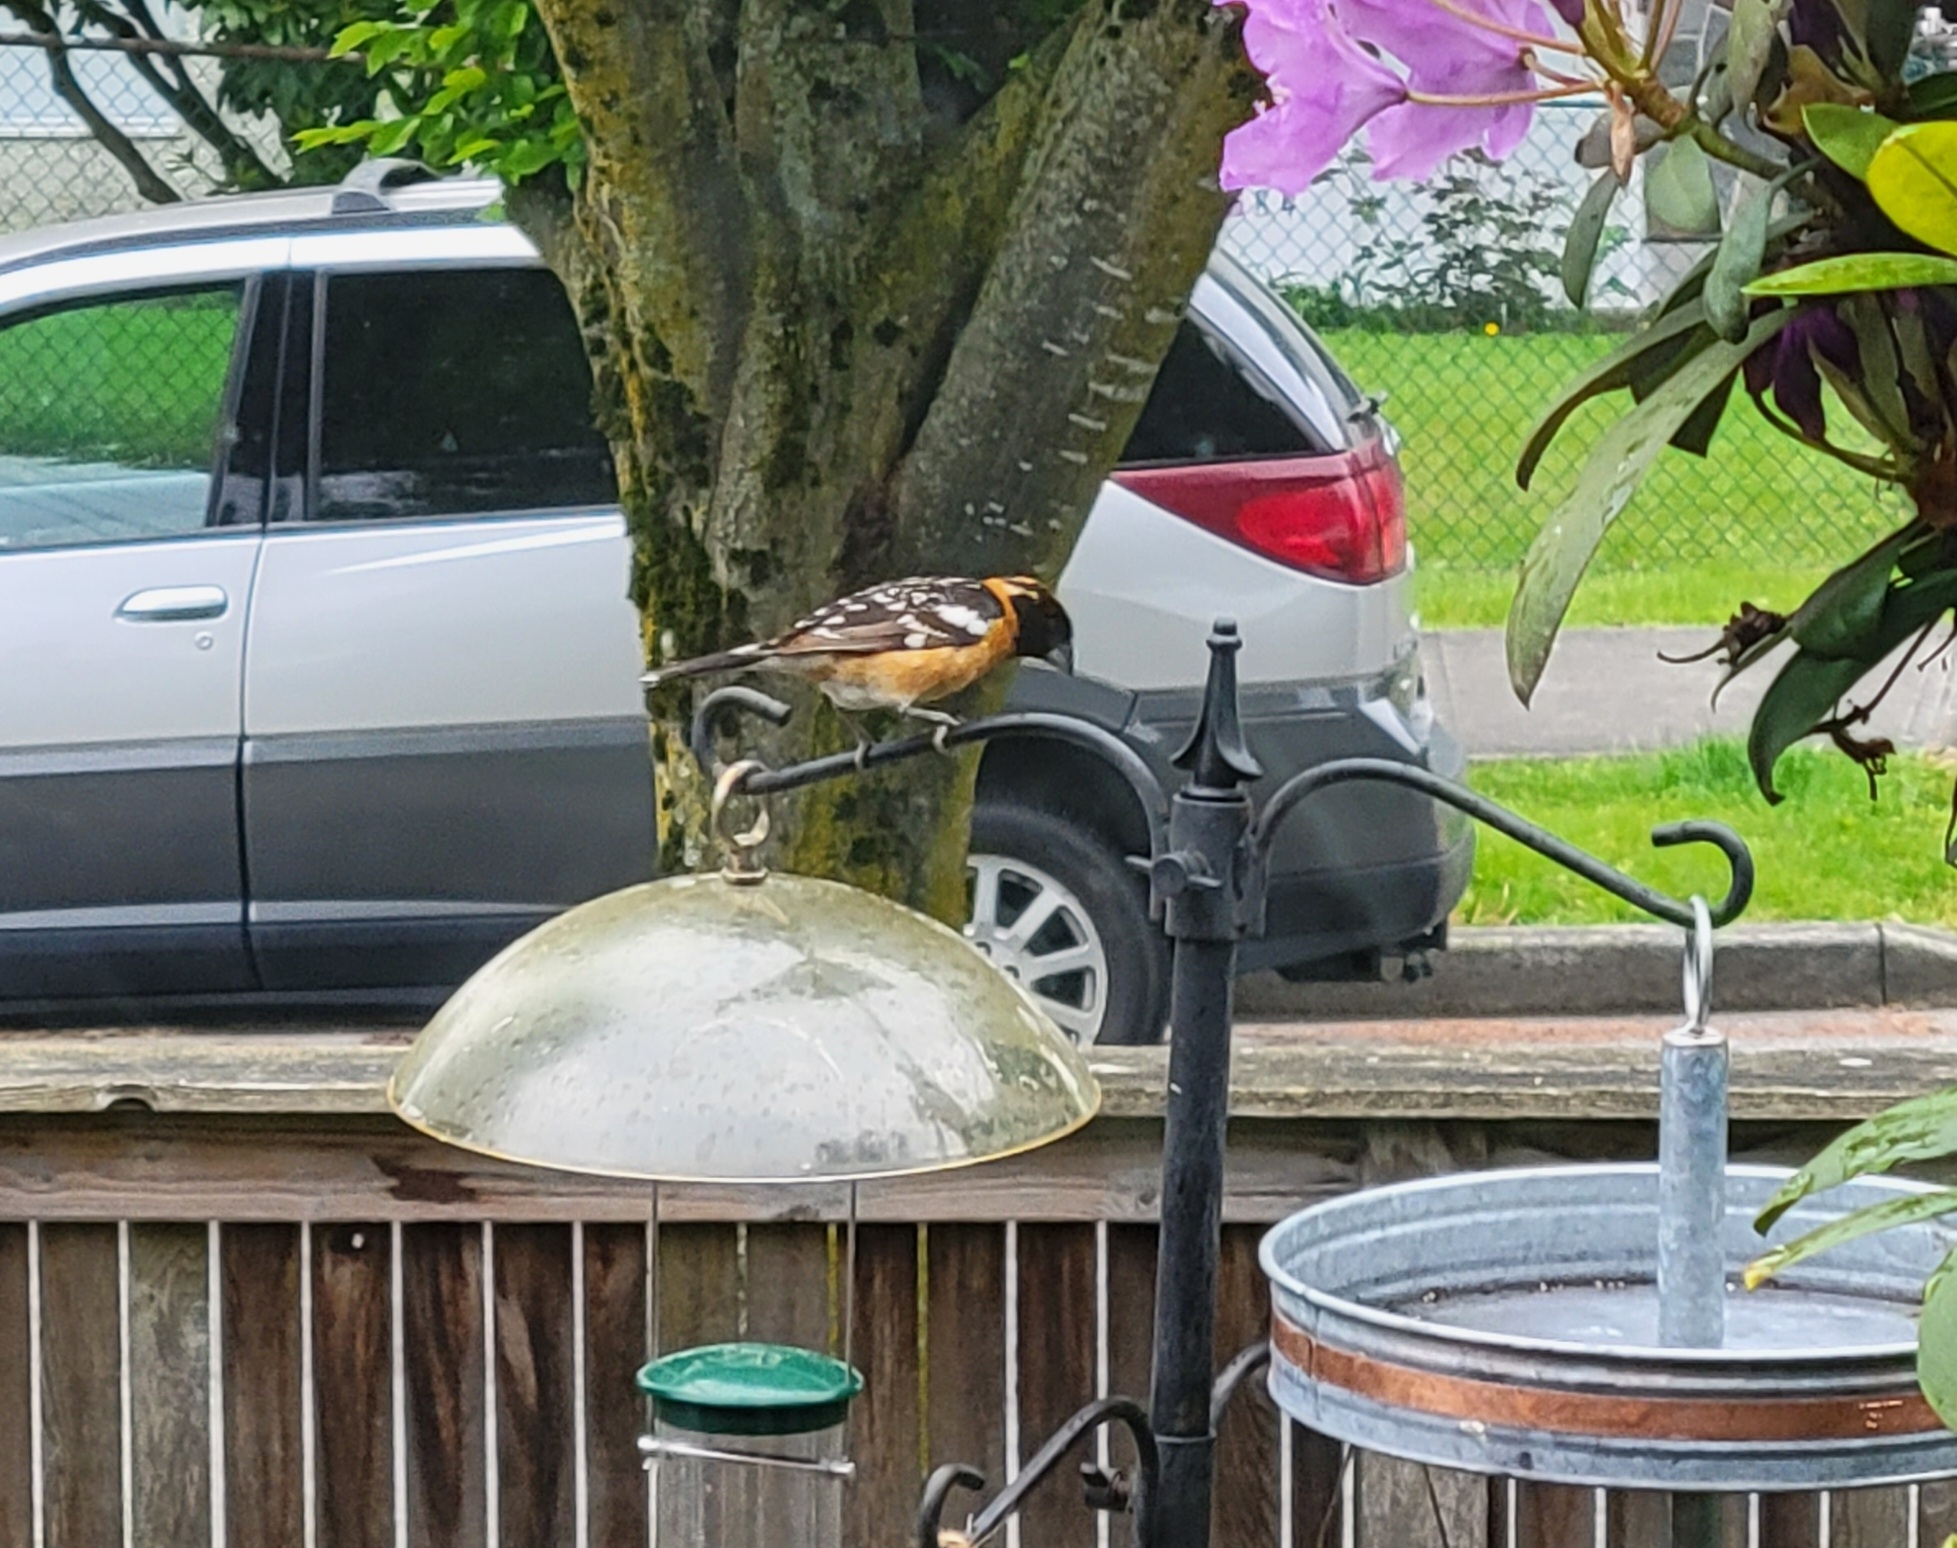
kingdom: Animalia
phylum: Chordata
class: Aves
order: Passeriformes
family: Cardinalidae
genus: Pheucticus
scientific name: Pheucticus melanocephalus
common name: Black-headed grosbeak
